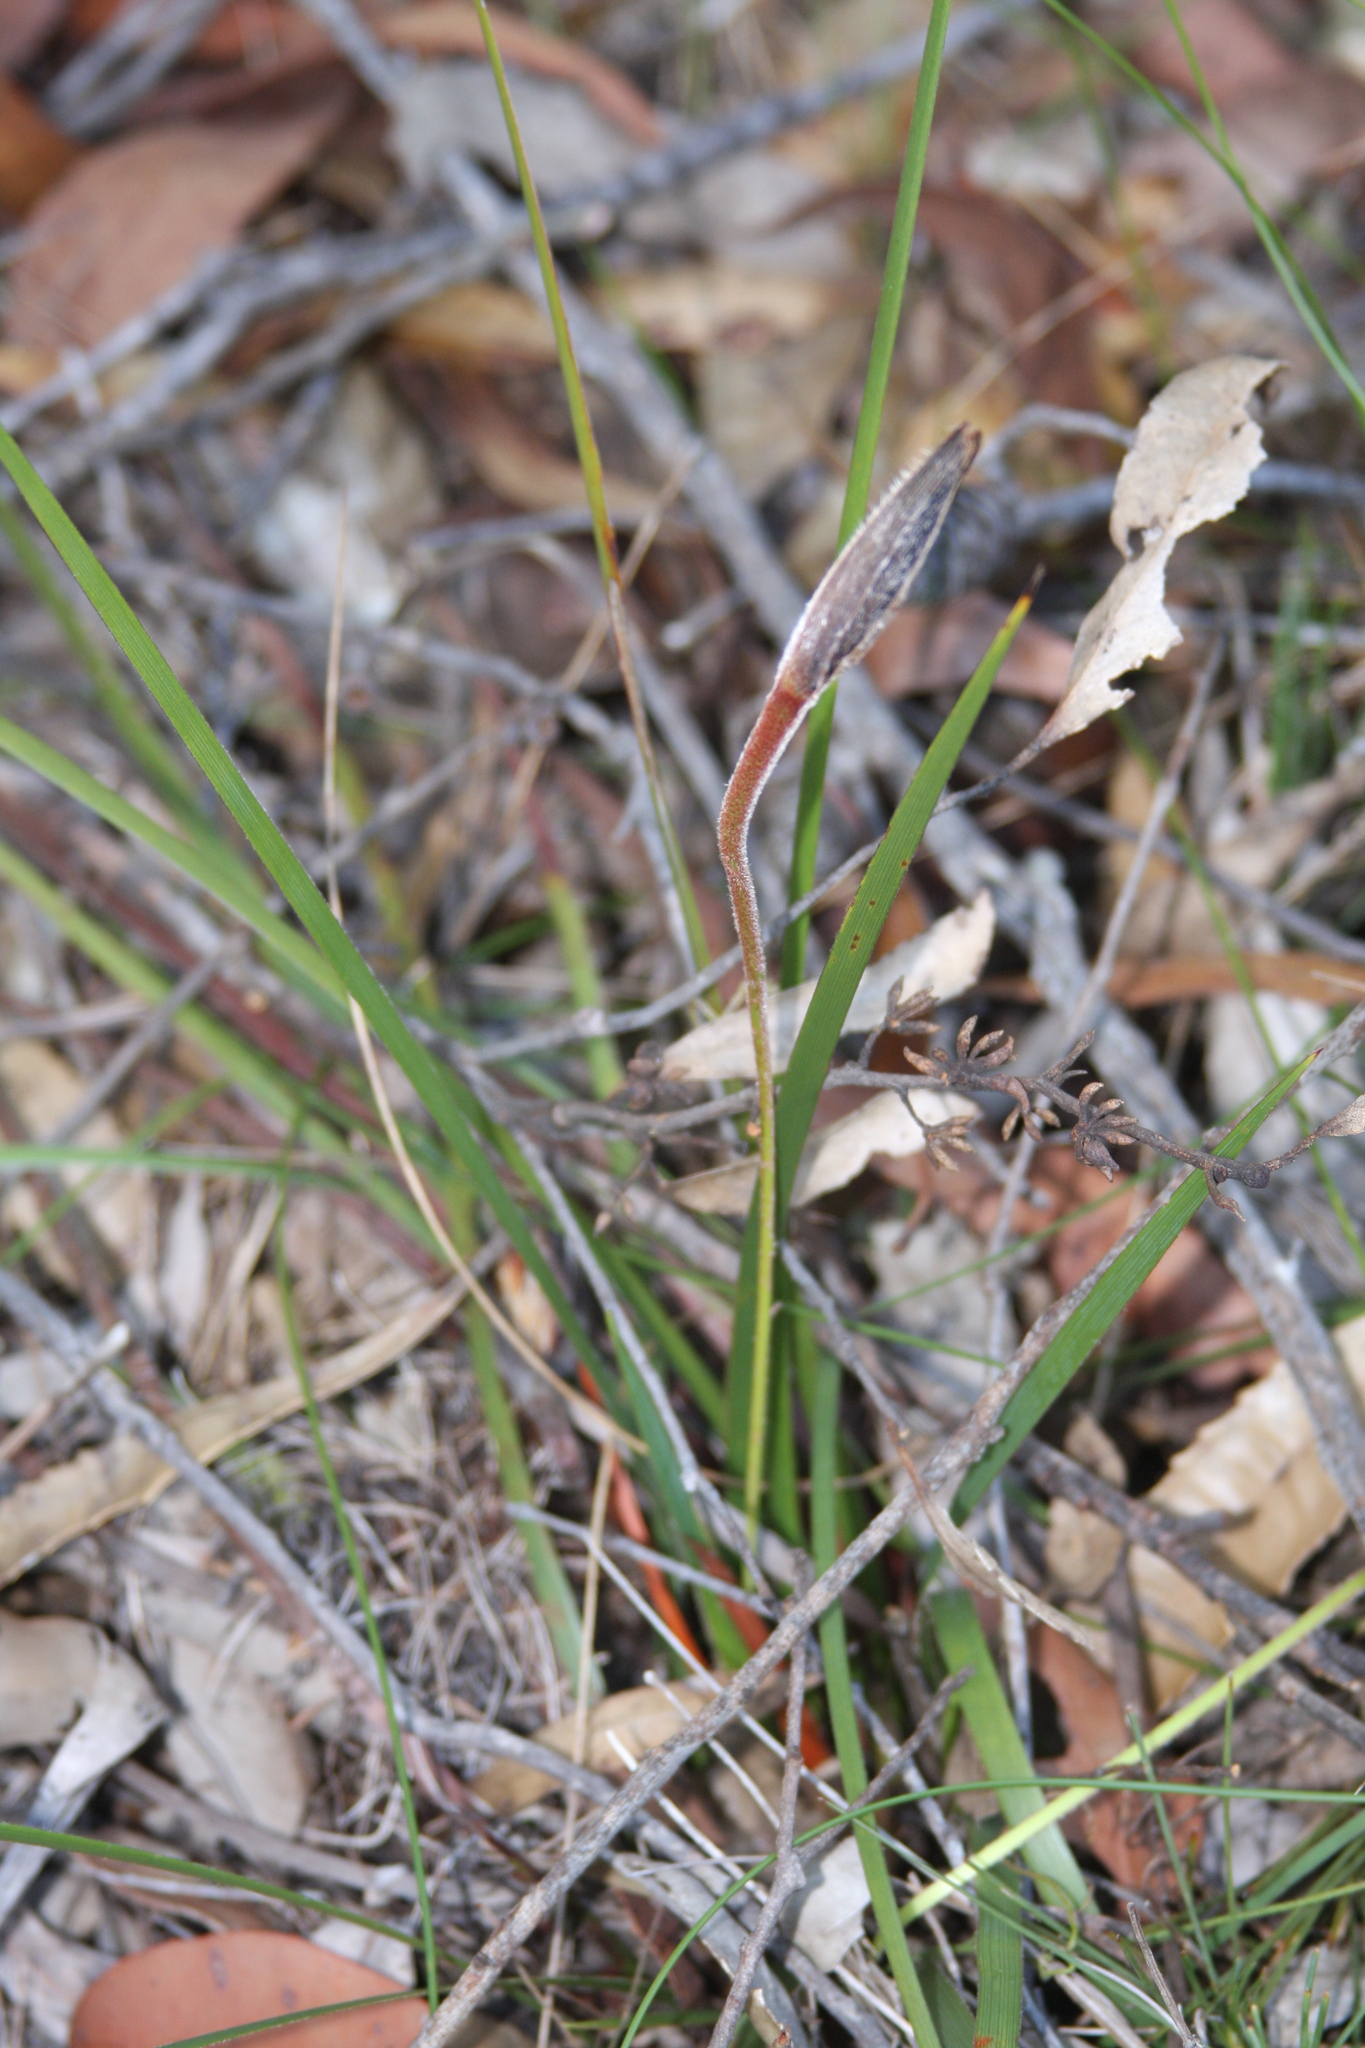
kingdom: Plantae
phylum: Tracheophyta
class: Liliopsida
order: Asparagales
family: Iridaceae
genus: Patersonia
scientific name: Patersonia sericea
